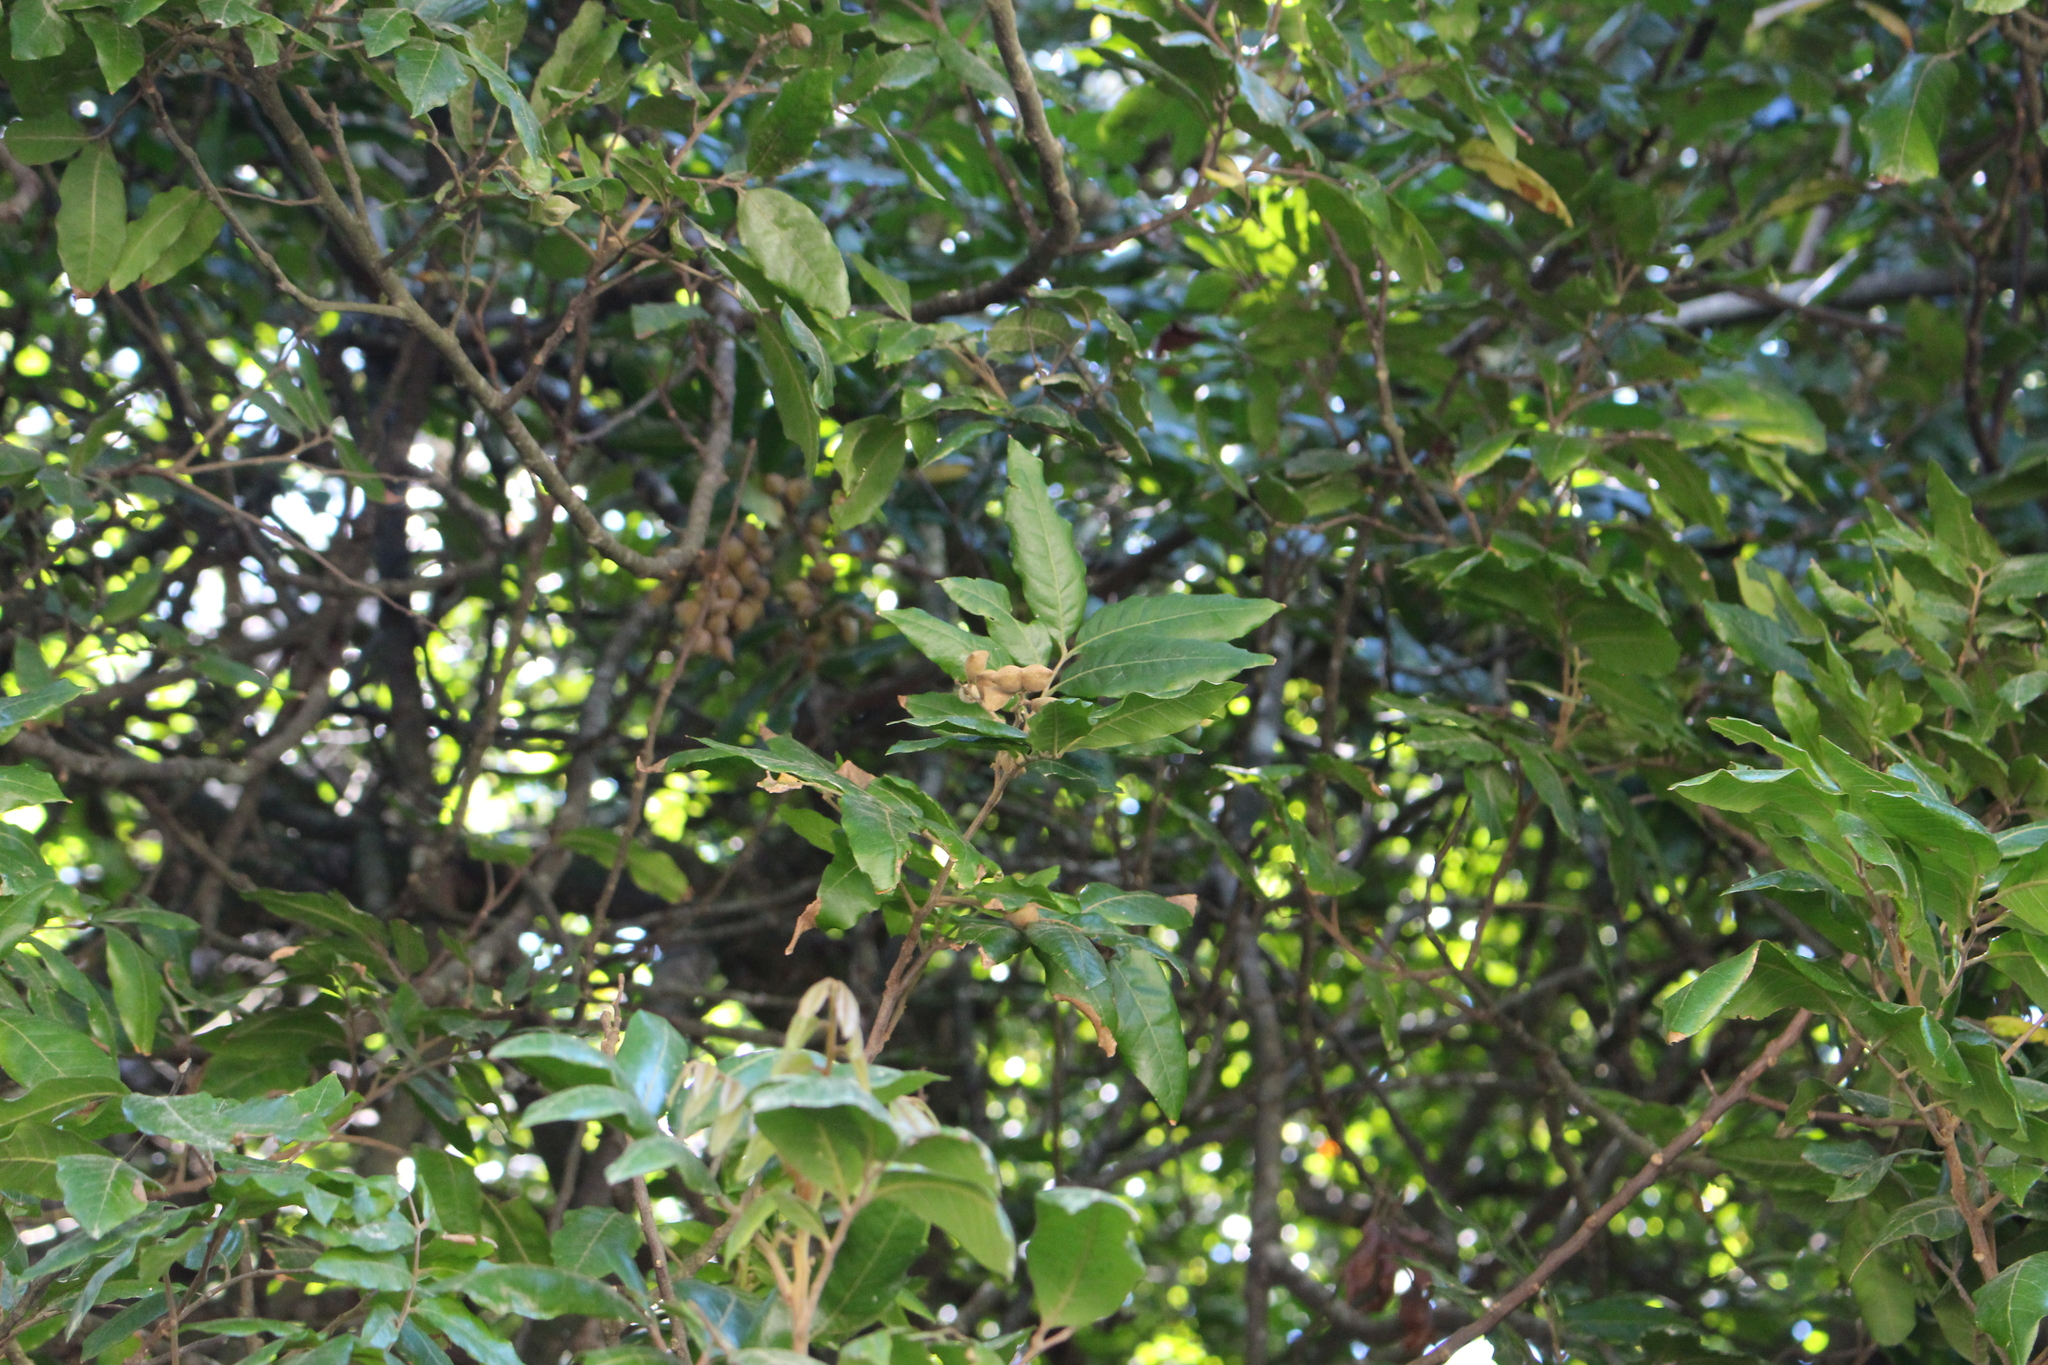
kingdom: Plantae
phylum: Tracheophyta
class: Magnoliopsida
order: Sapindales
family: Sapindaceae
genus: Alectryon
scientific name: Alectryon excelsus
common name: Three kings titoki
